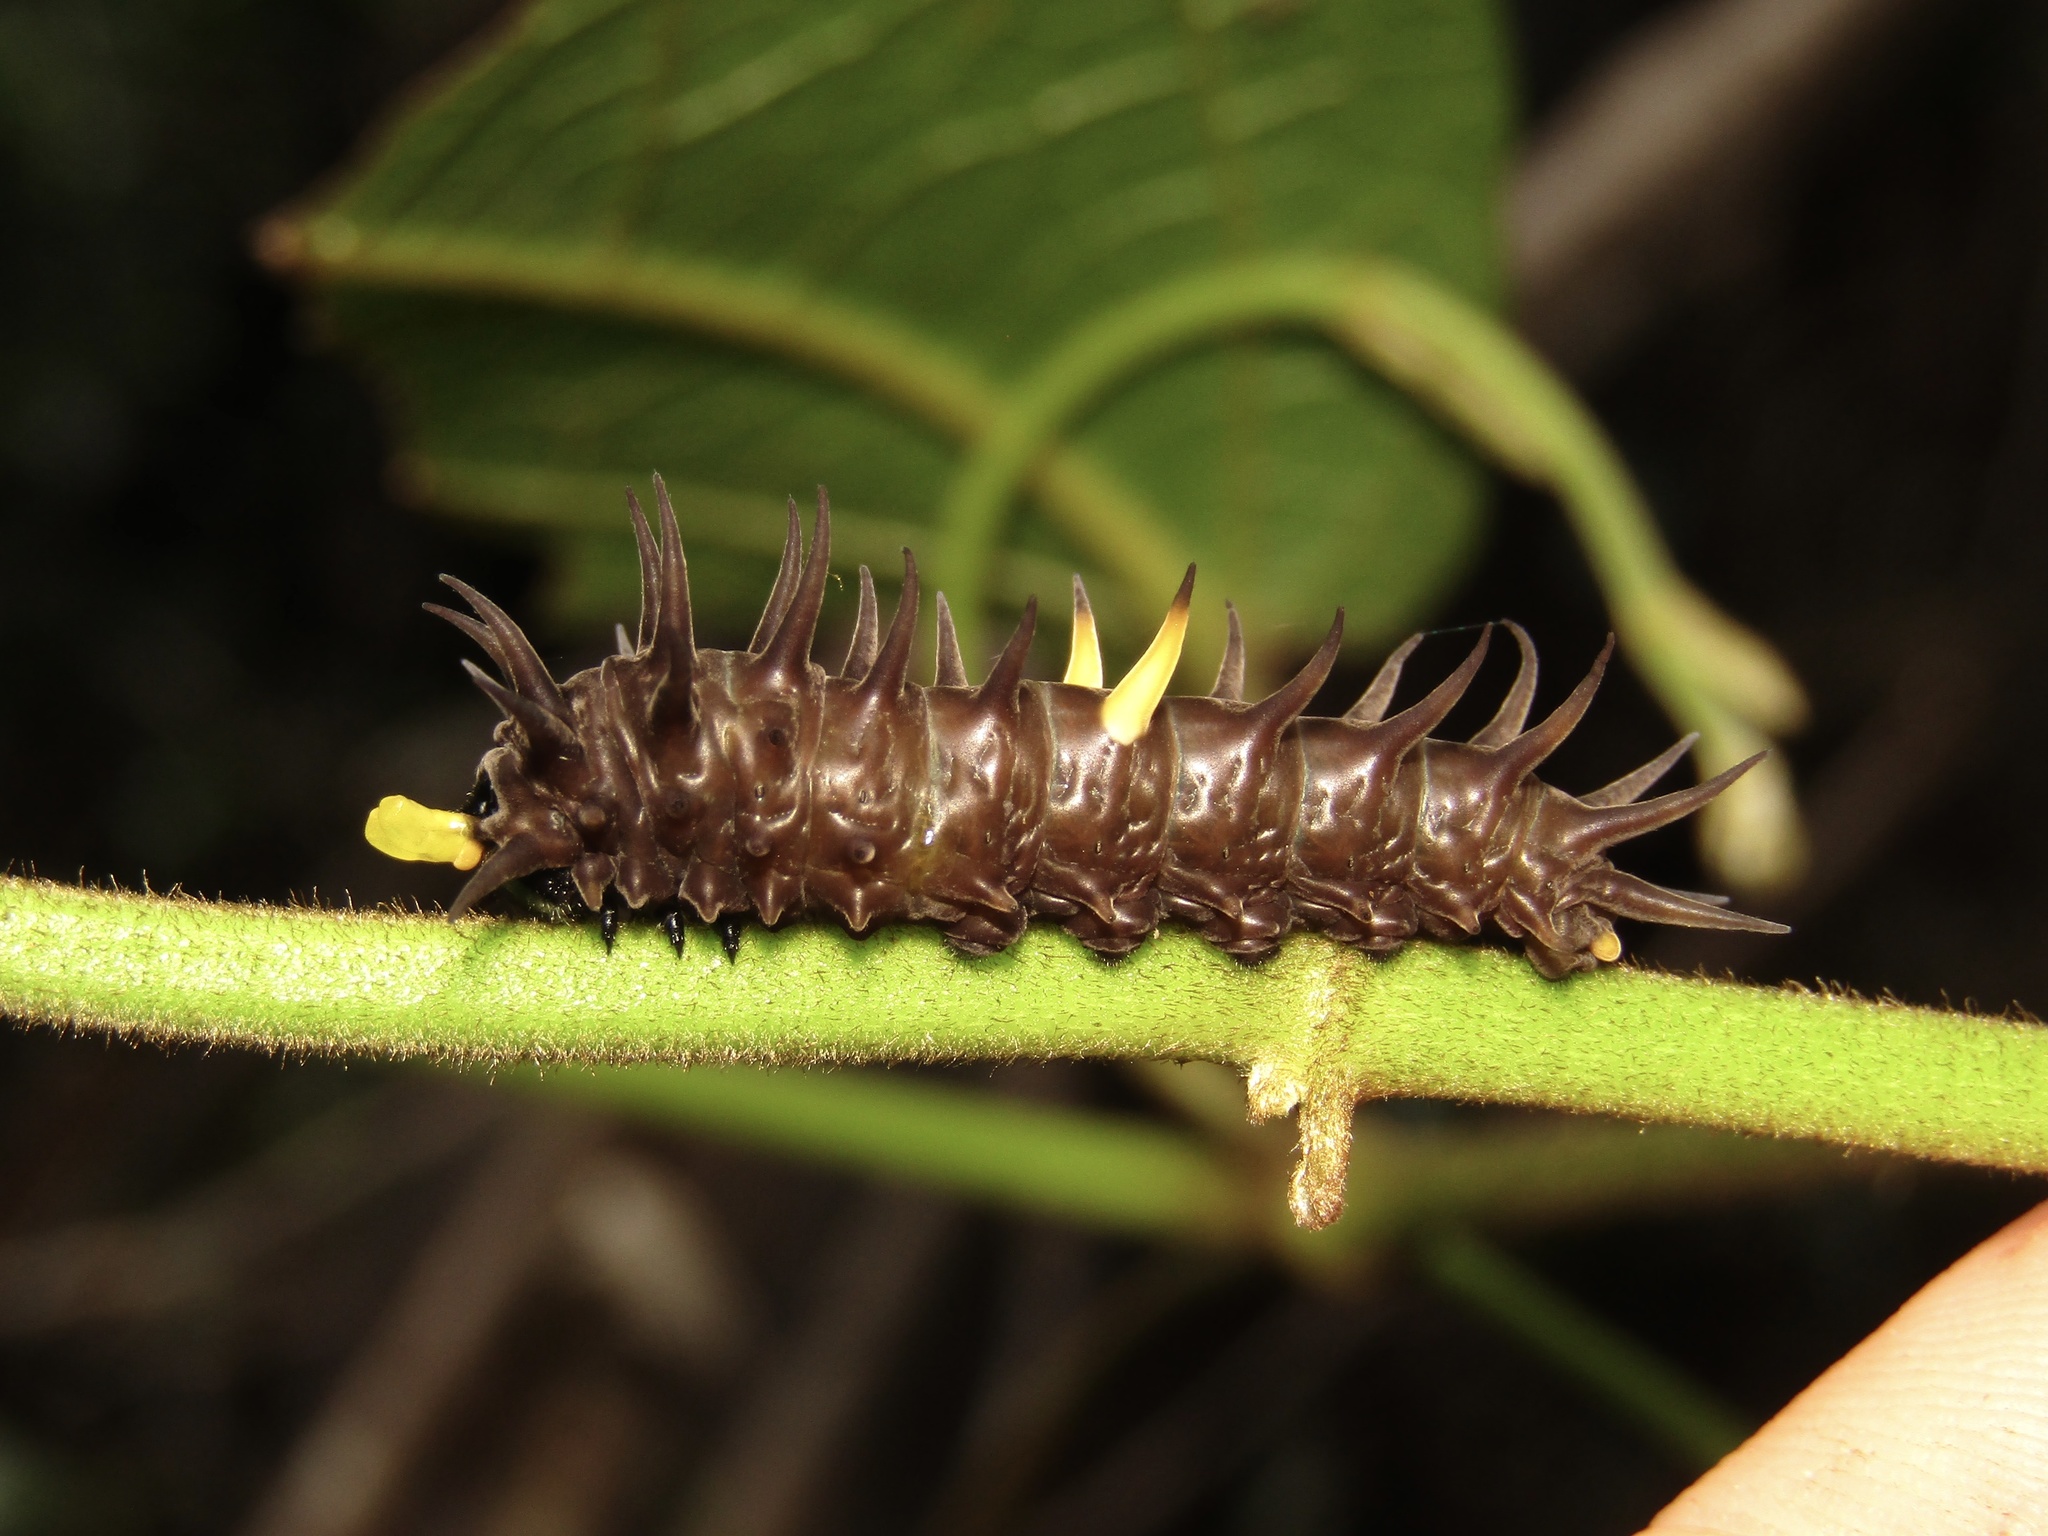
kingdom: Animalia
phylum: Arthropoda
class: Insecta
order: Lepidoptera
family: Papilionidae
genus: Ornithoptera
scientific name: Ornithoptera richmondia
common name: Richmond birdwing
